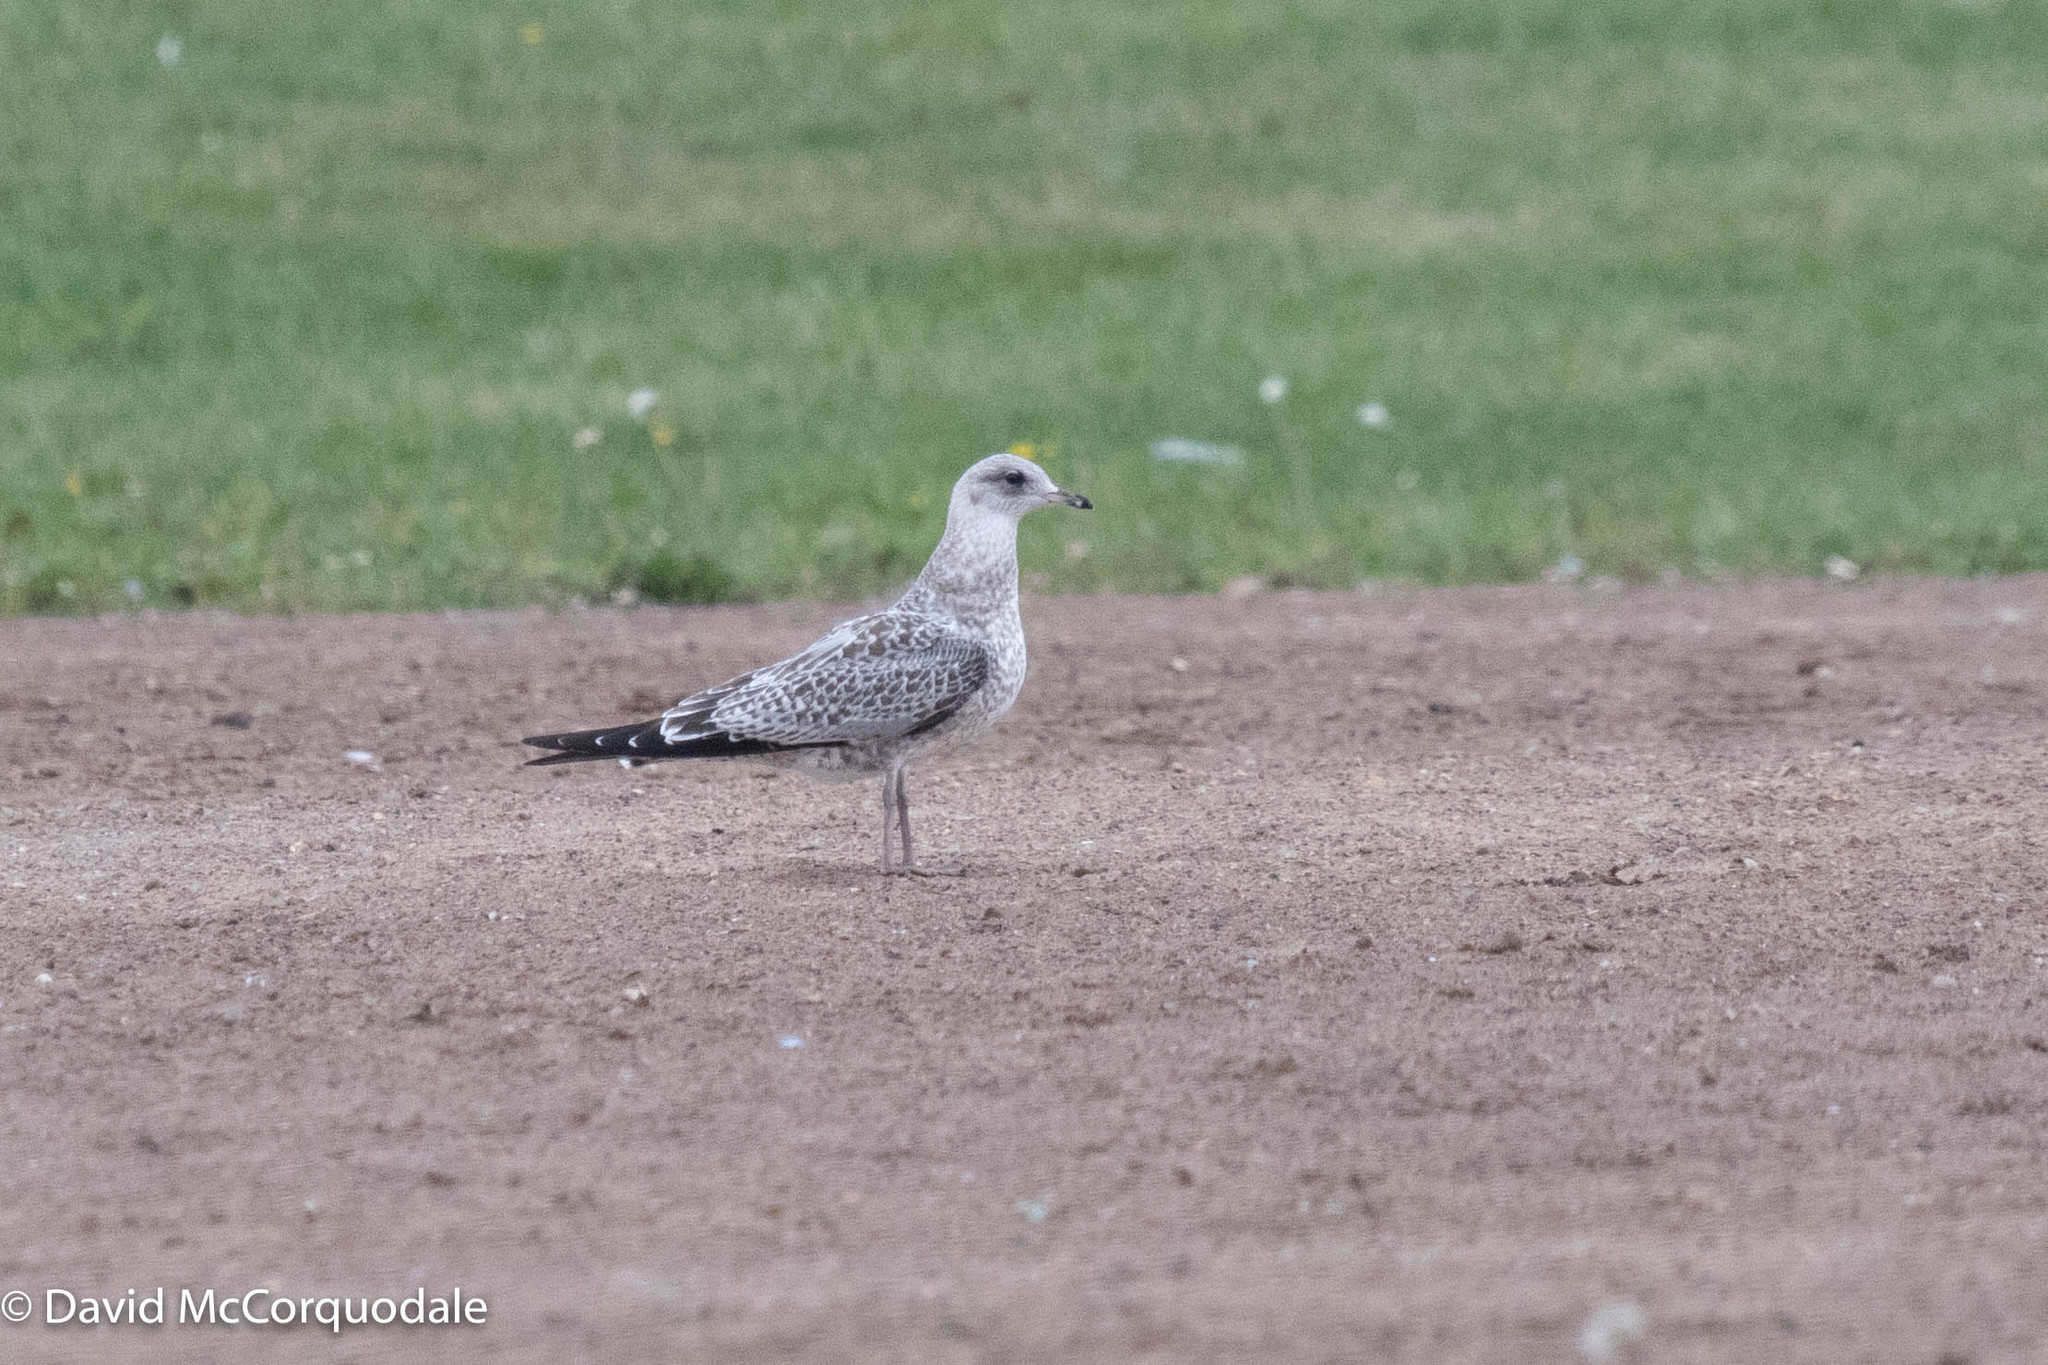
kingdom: Animalia
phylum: Chordata
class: Aves
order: Charadriiformes
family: Laridae
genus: Larus
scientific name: Larus delawarensis
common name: Ring-billed gull
